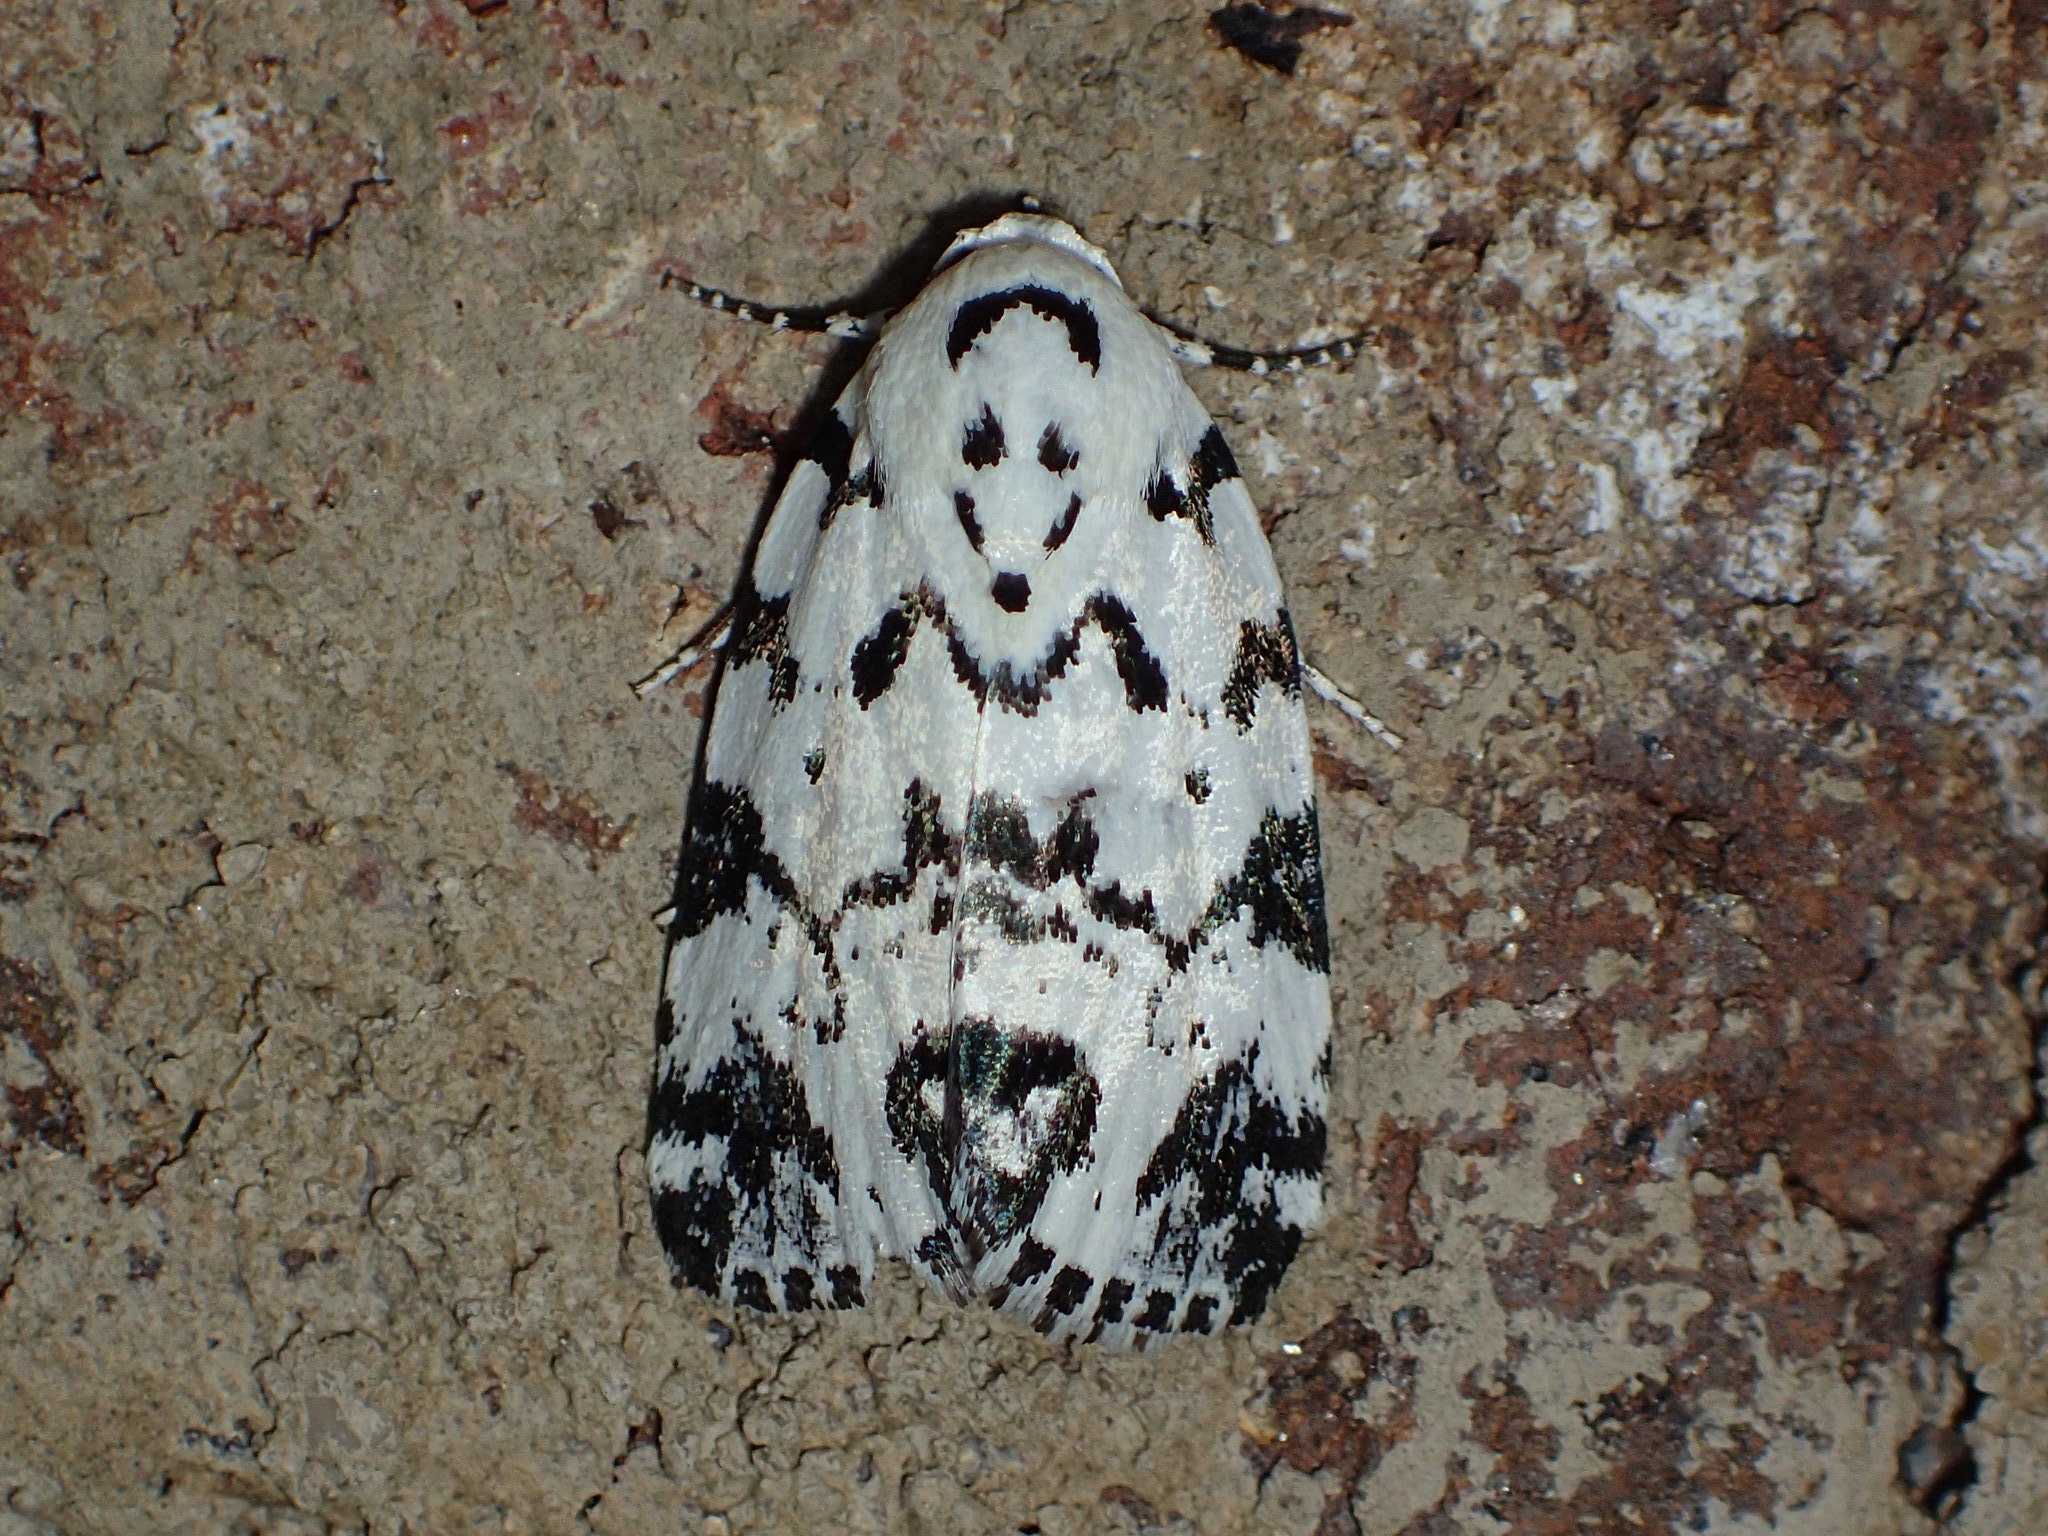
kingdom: Animalia
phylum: Arthropoda
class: Insecta
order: Lepidoptera
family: Noctuidae
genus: Polygrammate
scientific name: Polygrammate hebraeicum
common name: Hebrew moth
